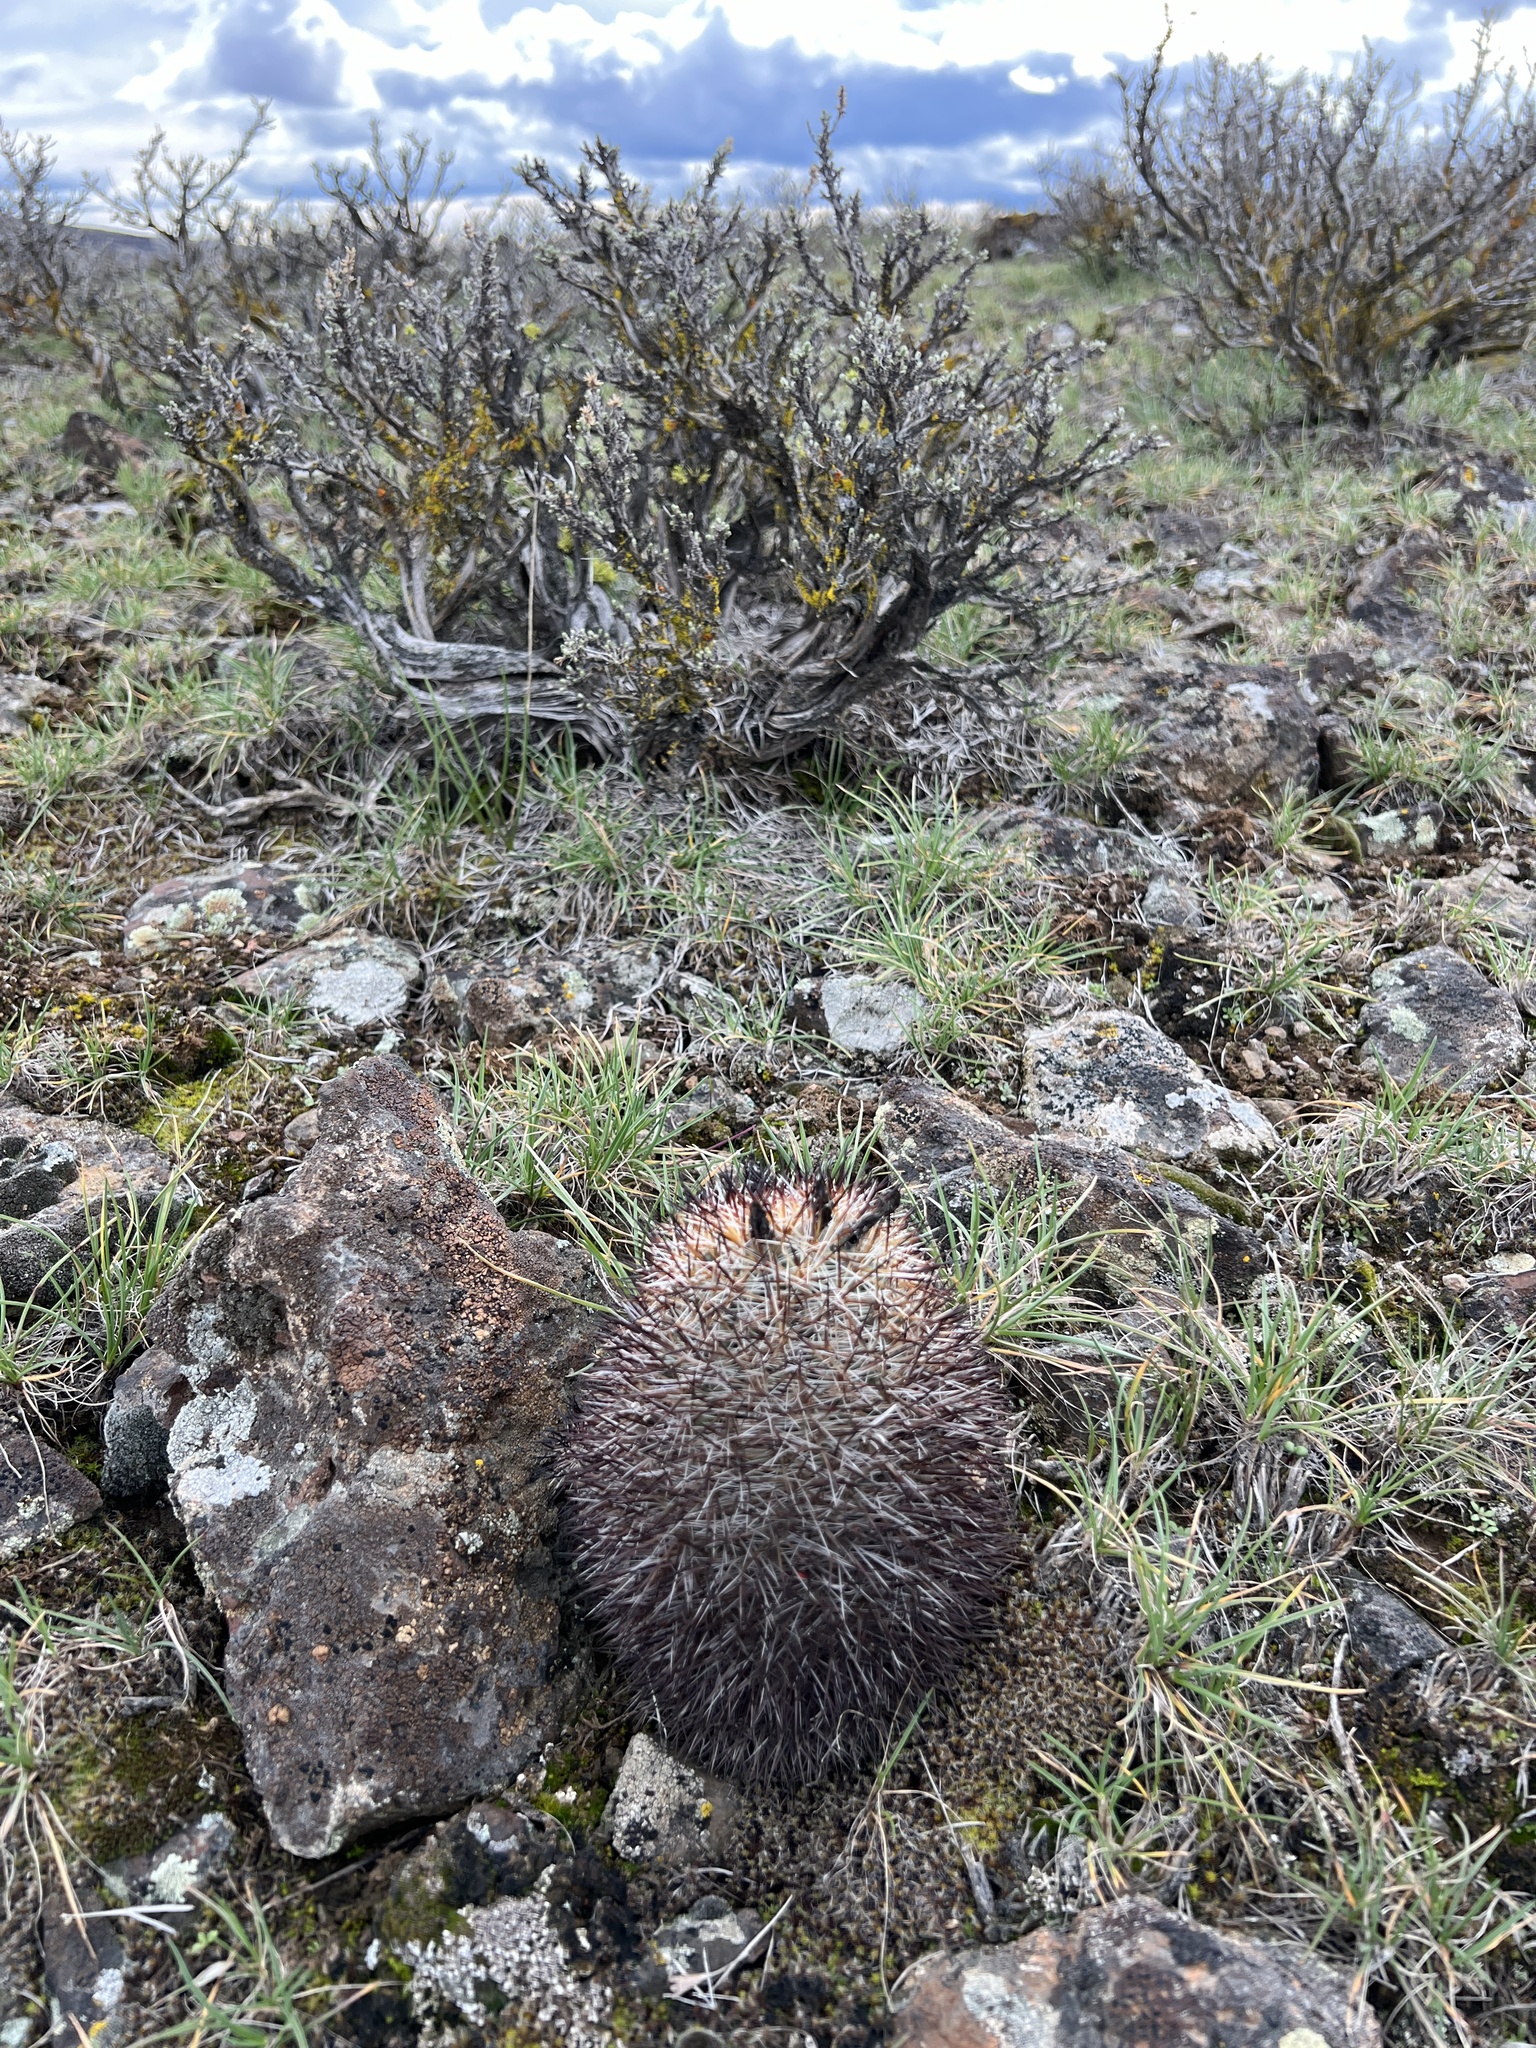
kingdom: Plantae
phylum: Tracheophyta
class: Magnoliopsida
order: Caryophyllales
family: Cactaceae
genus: Pediocactus
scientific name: Pediocactus nigrispinus
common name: Simpson's hedgehog cactus
